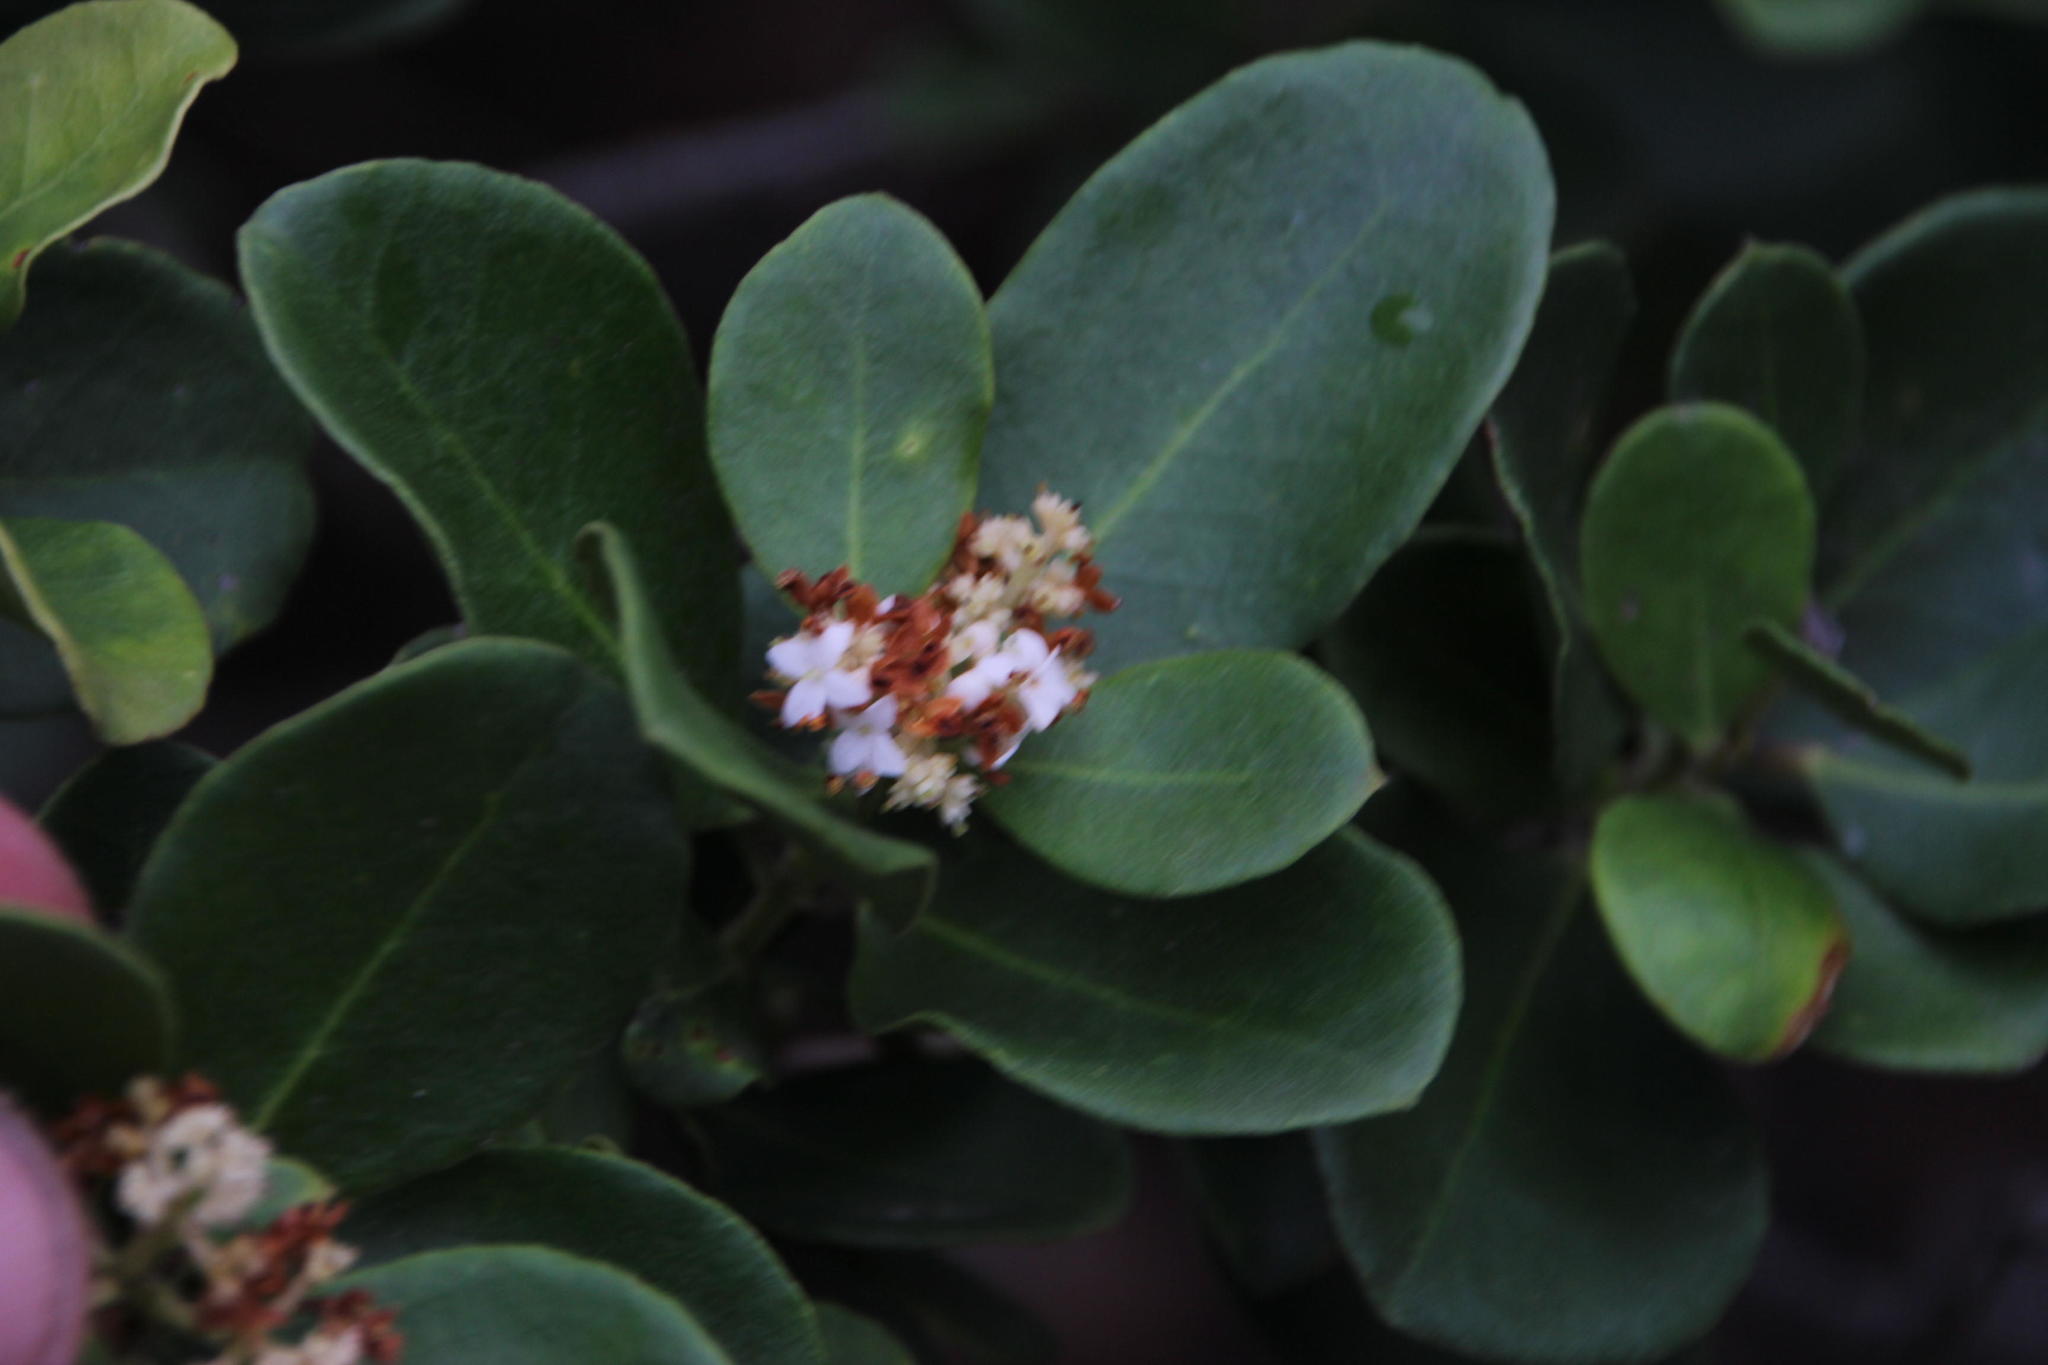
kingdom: Plantae
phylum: Tracheophyta
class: Magnoliopsida
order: Lamiales
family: Oleaceae
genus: Olea
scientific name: Olea capensis
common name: Black ironwood
